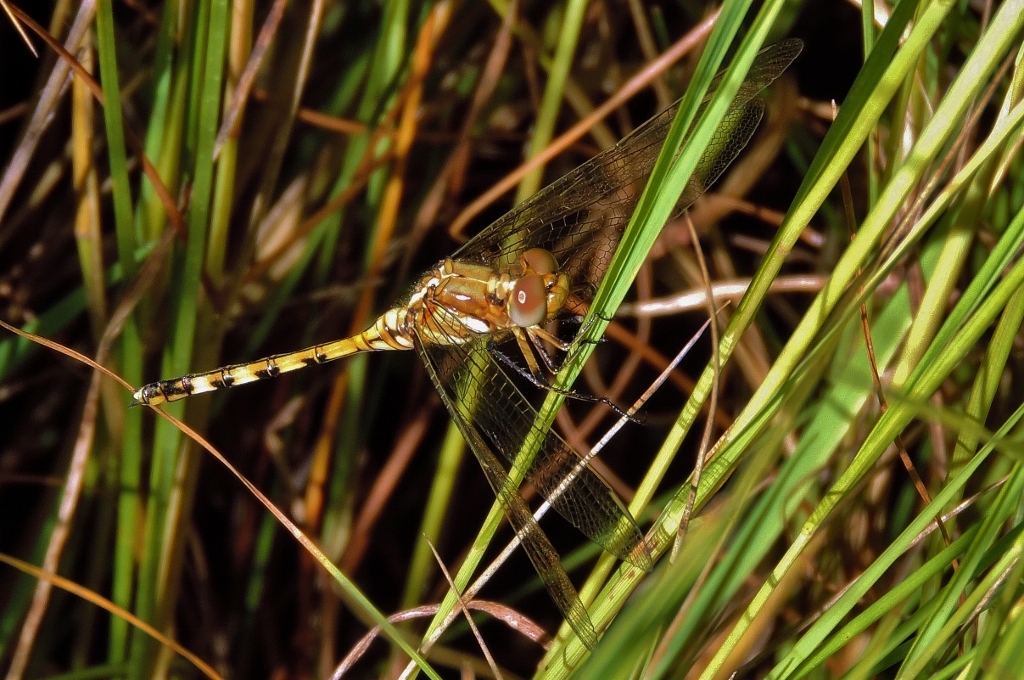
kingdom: Animalia
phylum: Arthropoda
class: Insecta
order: Odonata
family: Libellulidae
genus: Orthetrum
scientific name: Orthetrum brachiale
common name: Banded skimmer
